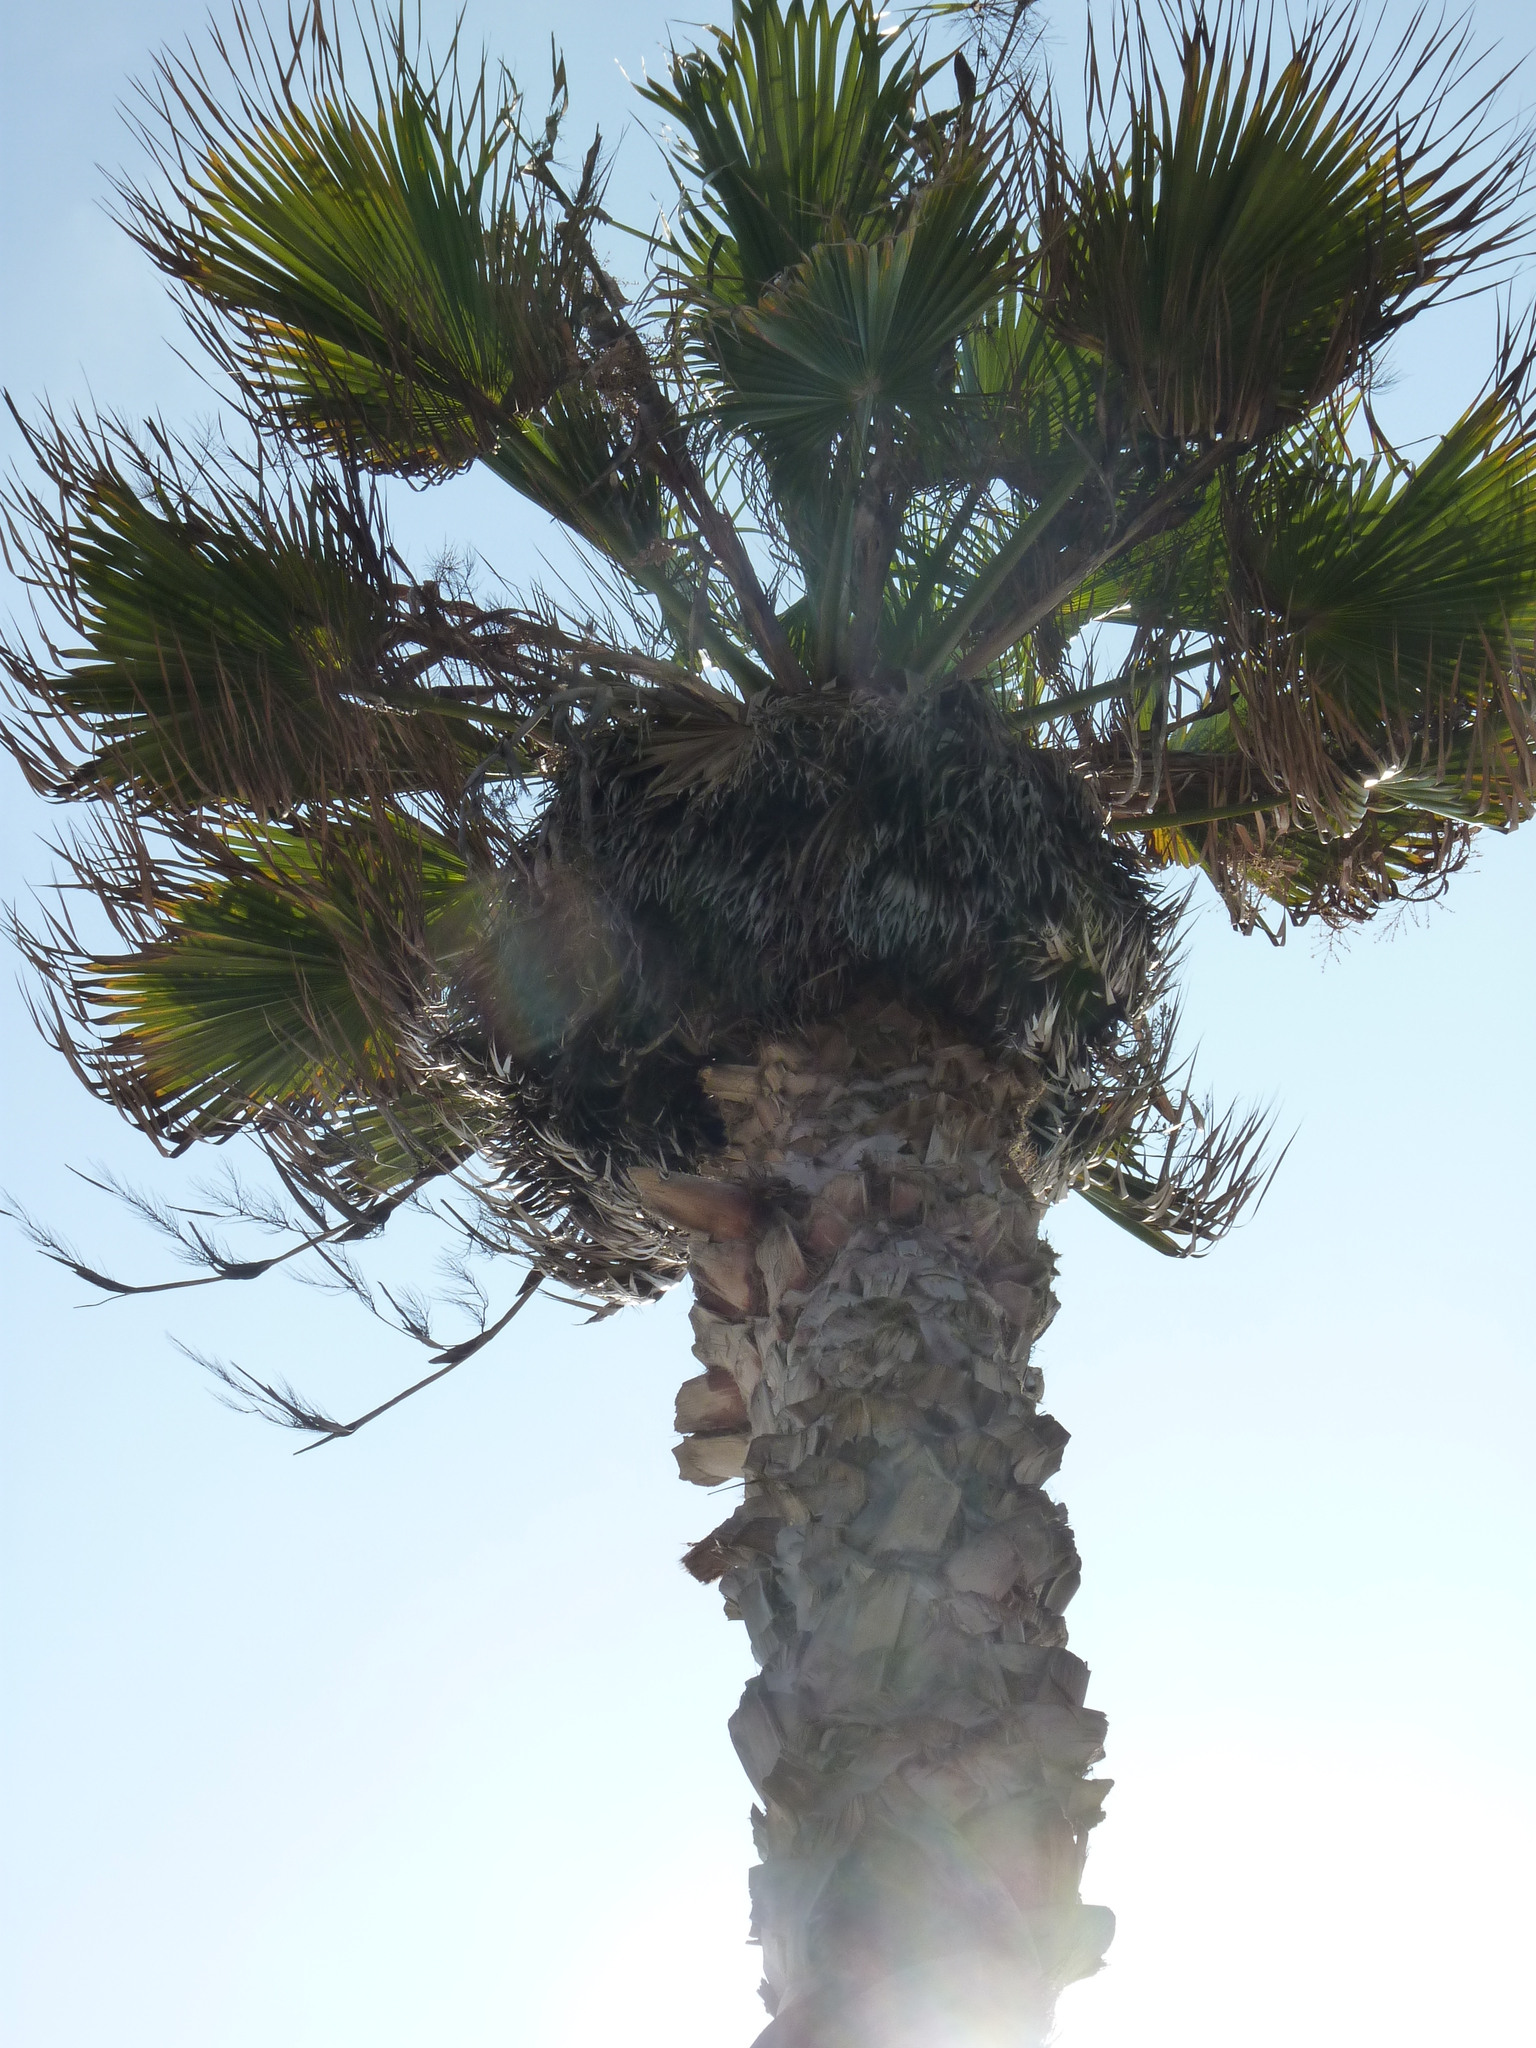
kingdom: Plantae
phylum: Tracheophyta
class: Liliopsida
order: Arecales
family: Arecaceae
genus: Washingtonia
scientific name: Washingtonia filifera
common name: California fan palm
